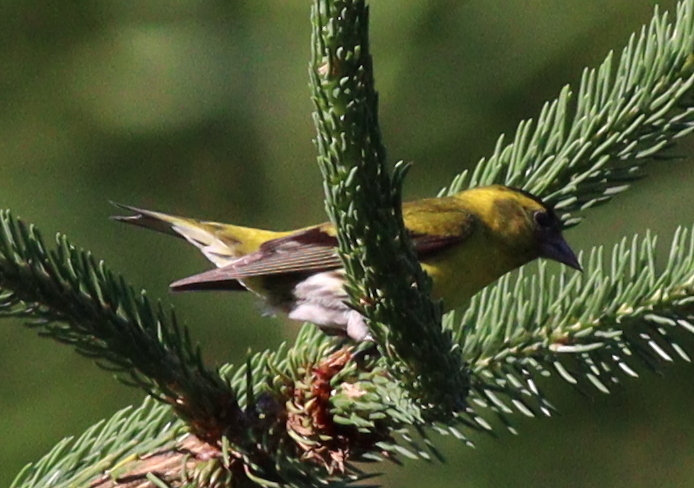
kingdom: Animalia
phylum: Chordata
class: Aves
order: Passeriformes
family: Fringillidae
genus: Spinus
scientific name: Spinus spinus
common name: Eurasian siskin
